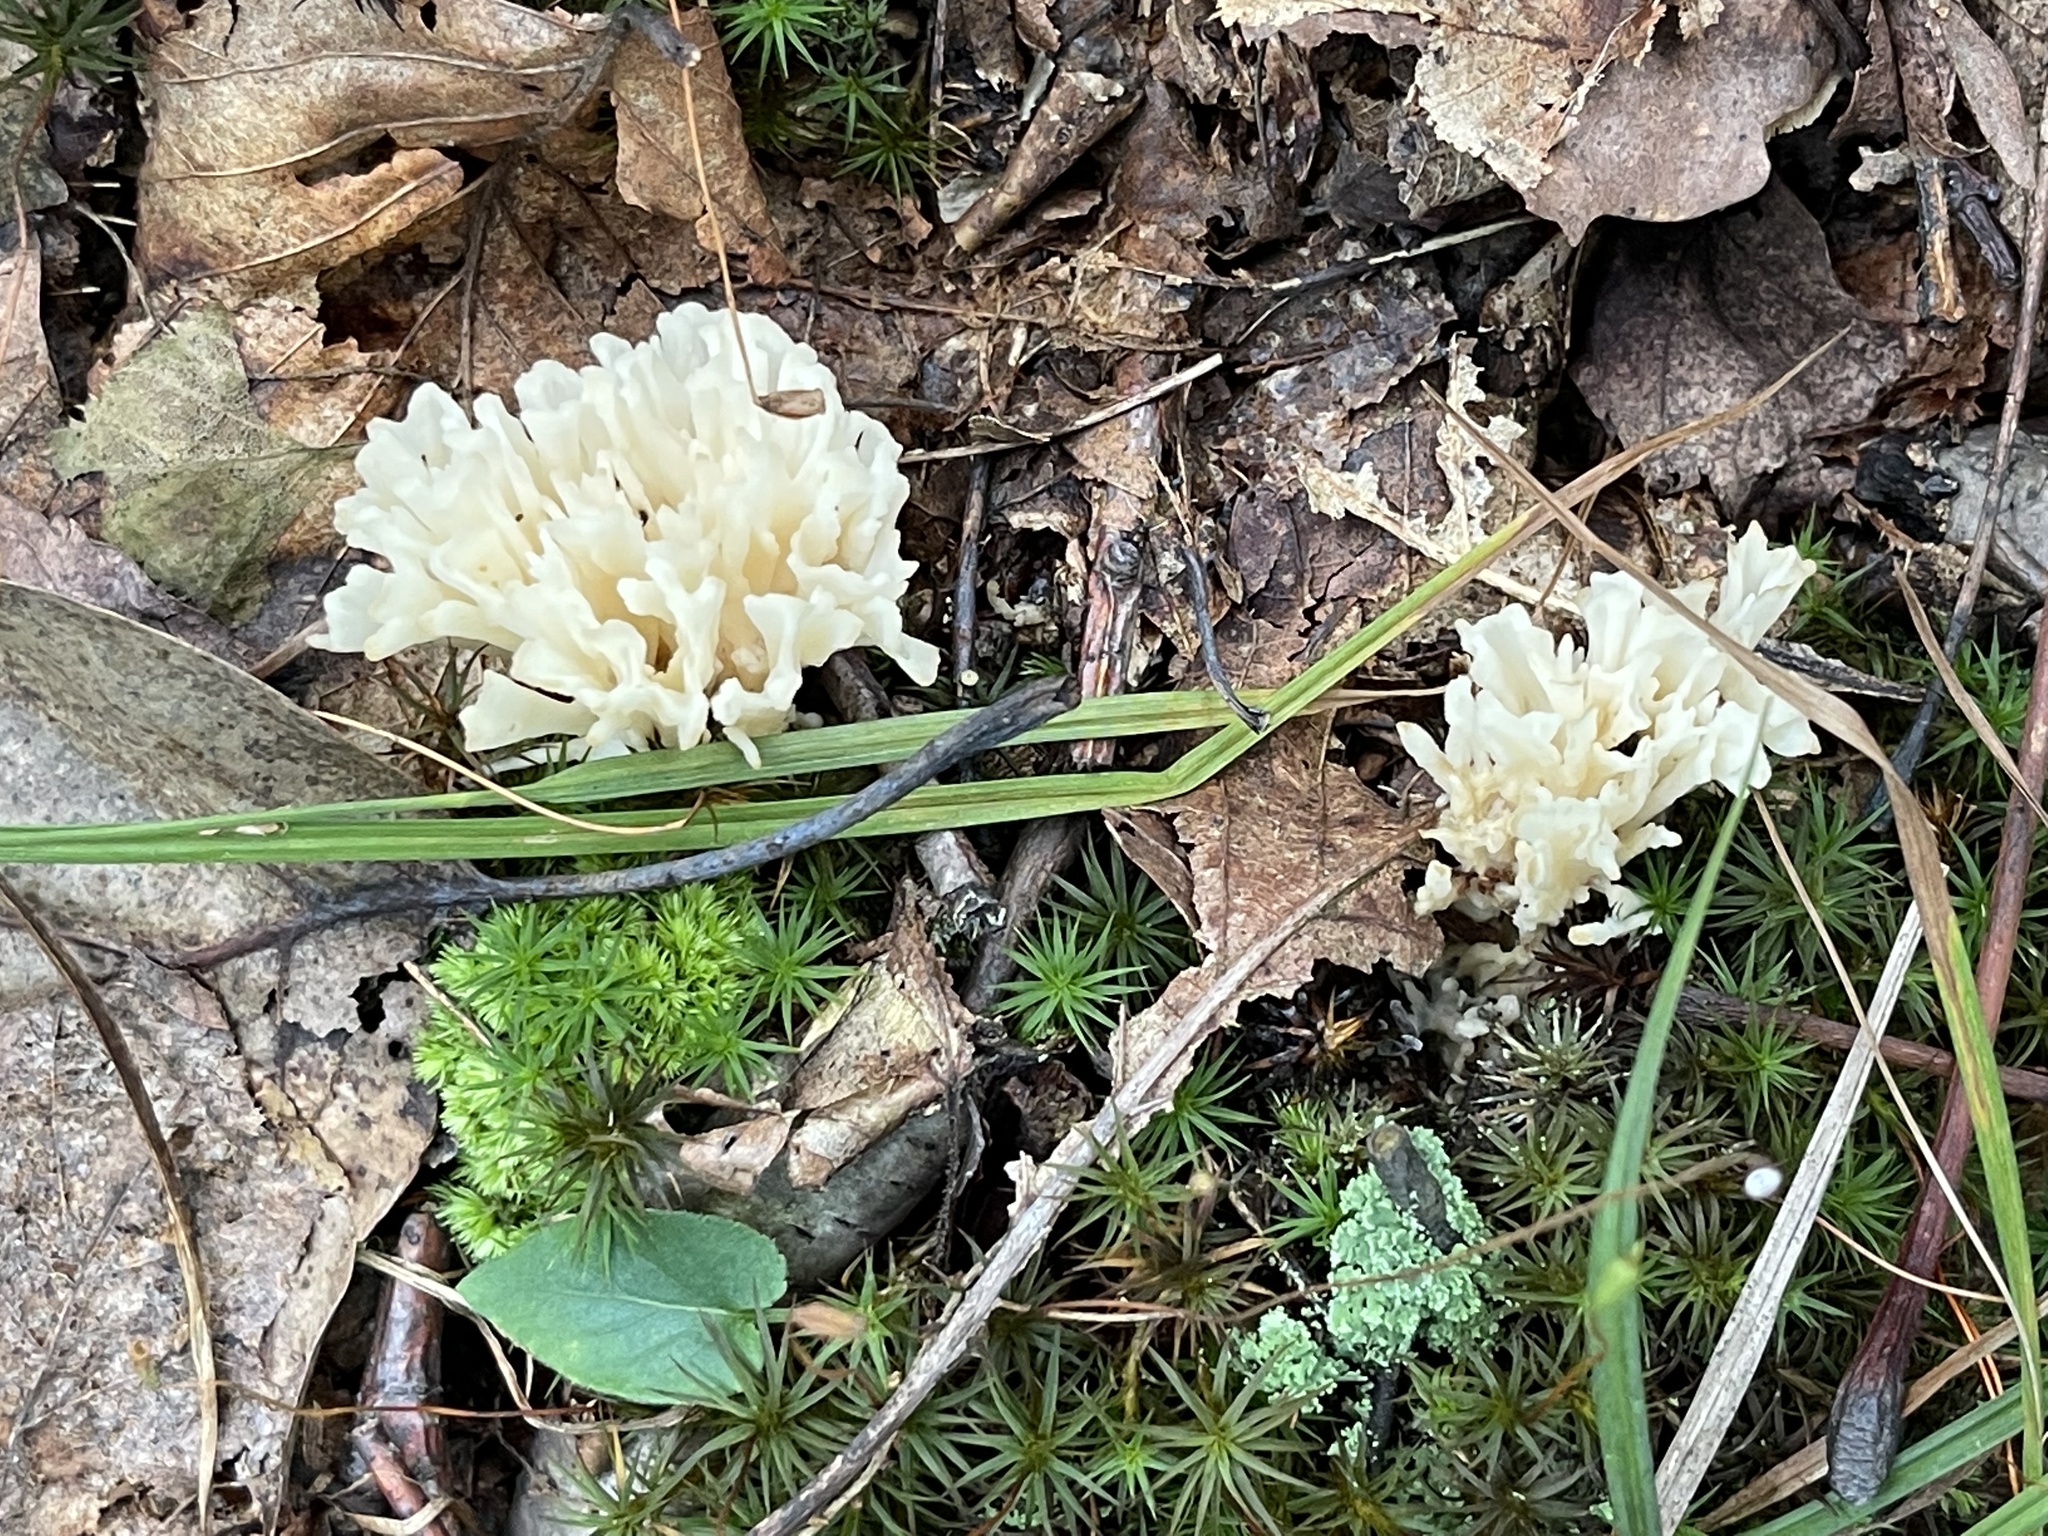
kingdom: Fungi
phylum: Basidiomycota
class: Agaricomycetes
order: Sebacinales
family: Sebacinaceae
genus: Sebacina
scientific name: Sebacina schweinitzii
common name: Jellied false coral fungus
